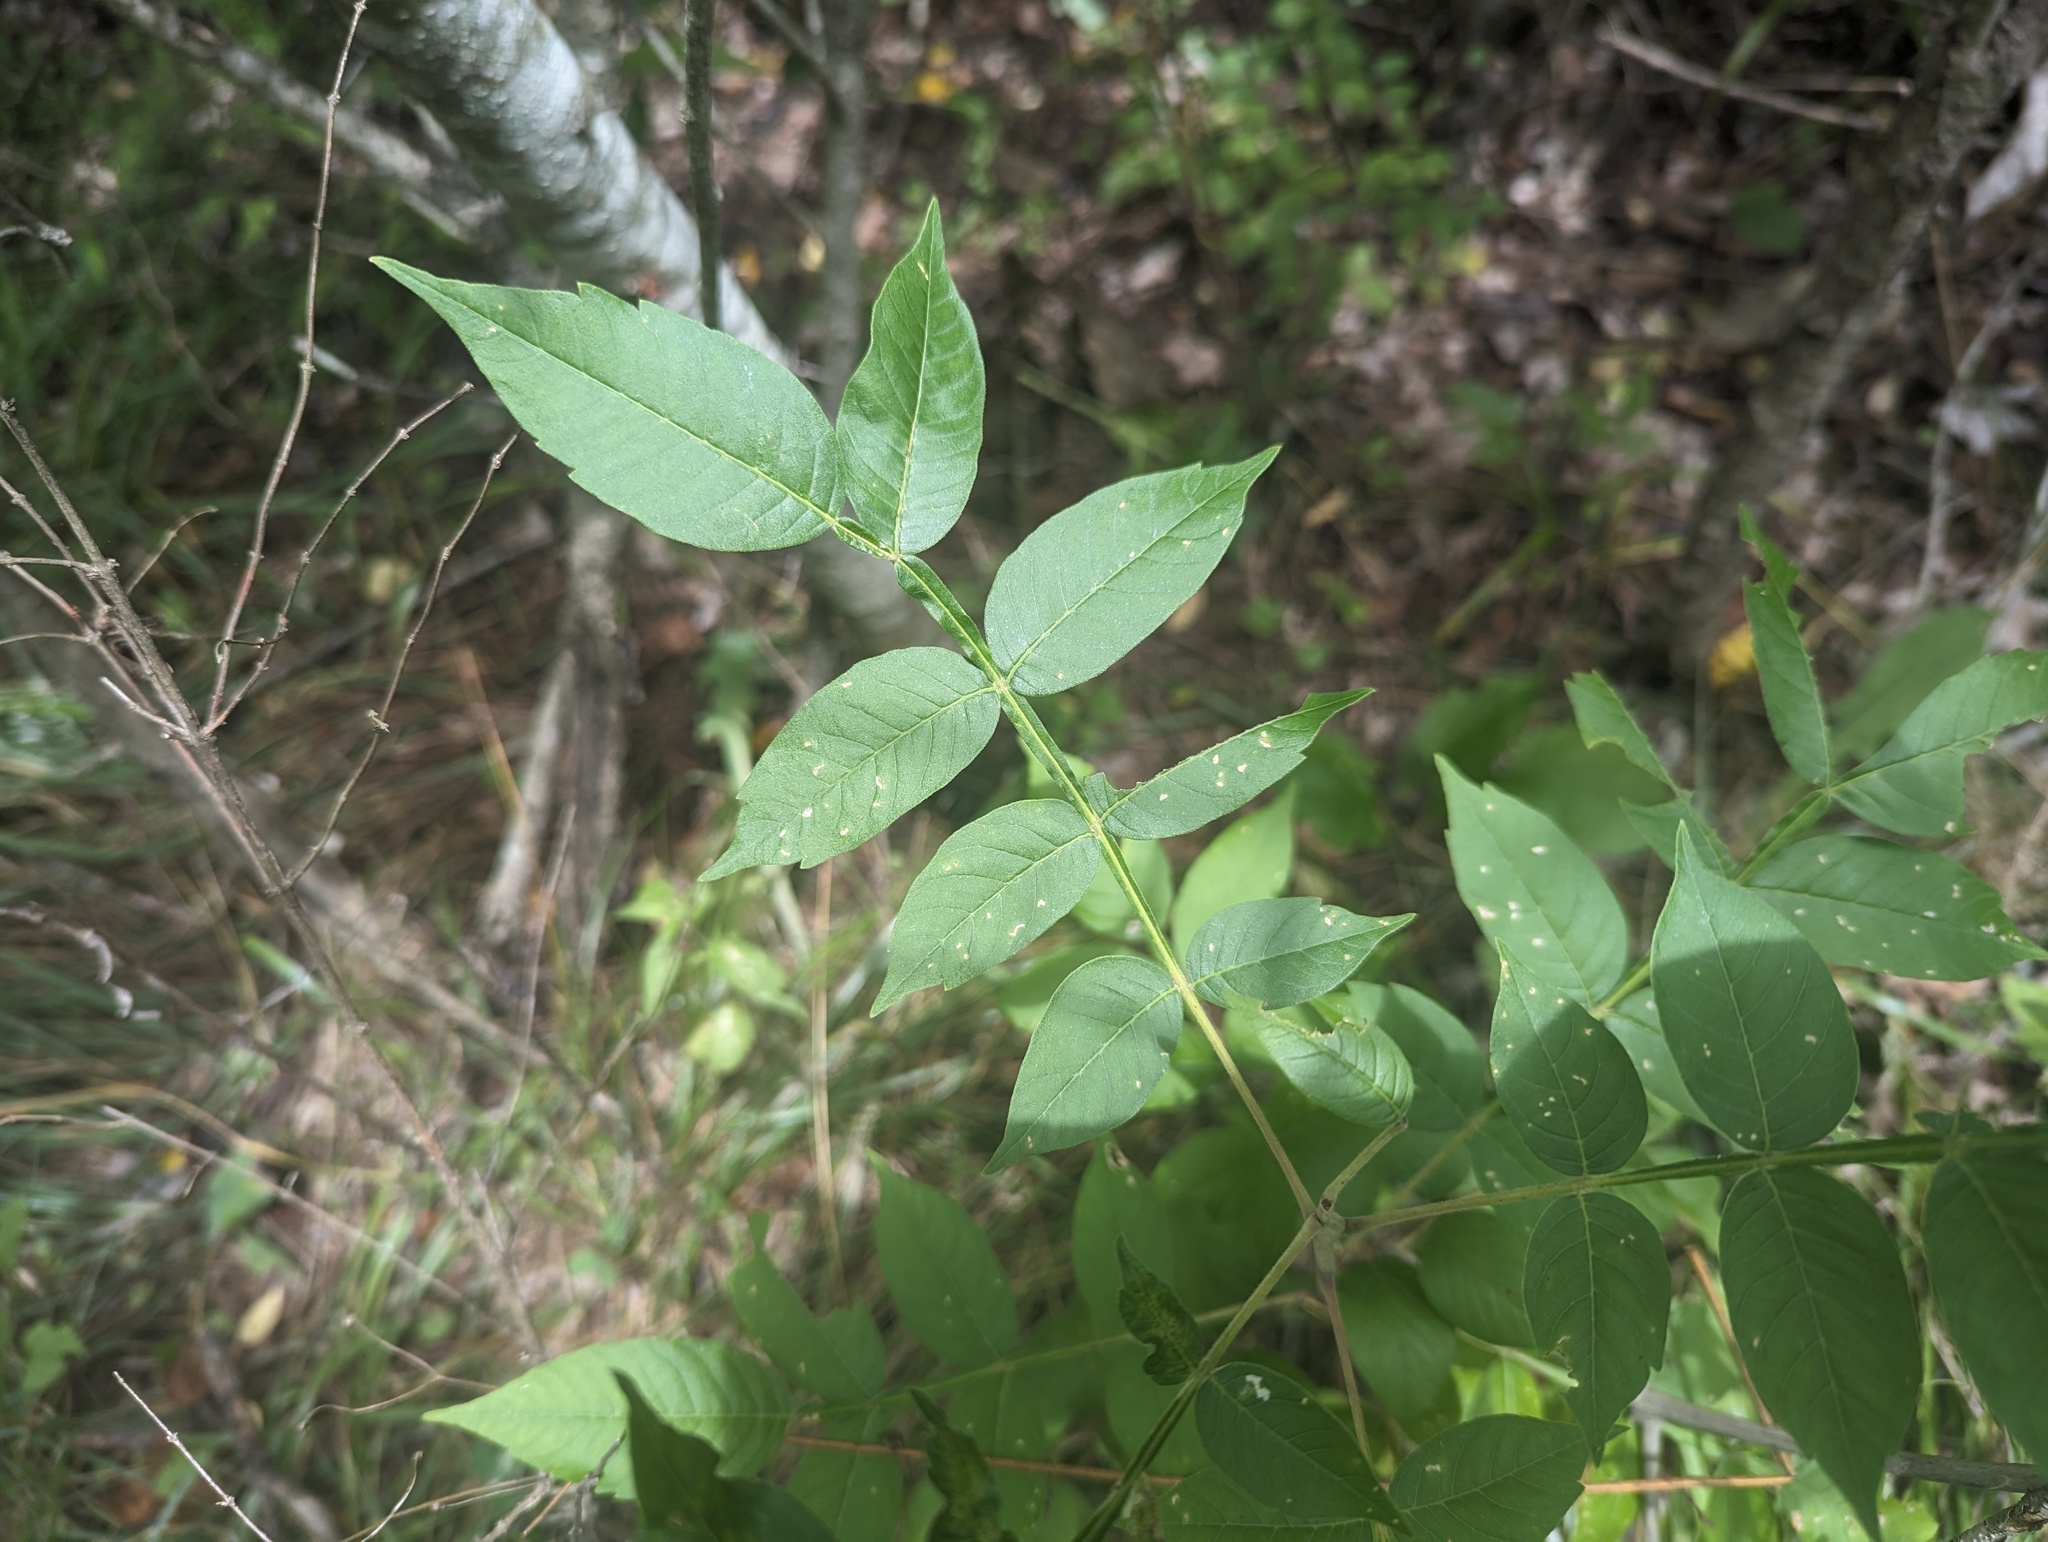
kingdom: Plantae
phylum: Tracheophyta
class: Magnoliopsida
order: Sapindales
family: Anacardiaceae
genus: Rhus
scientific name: Rhus copallina
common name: Shining sumac
